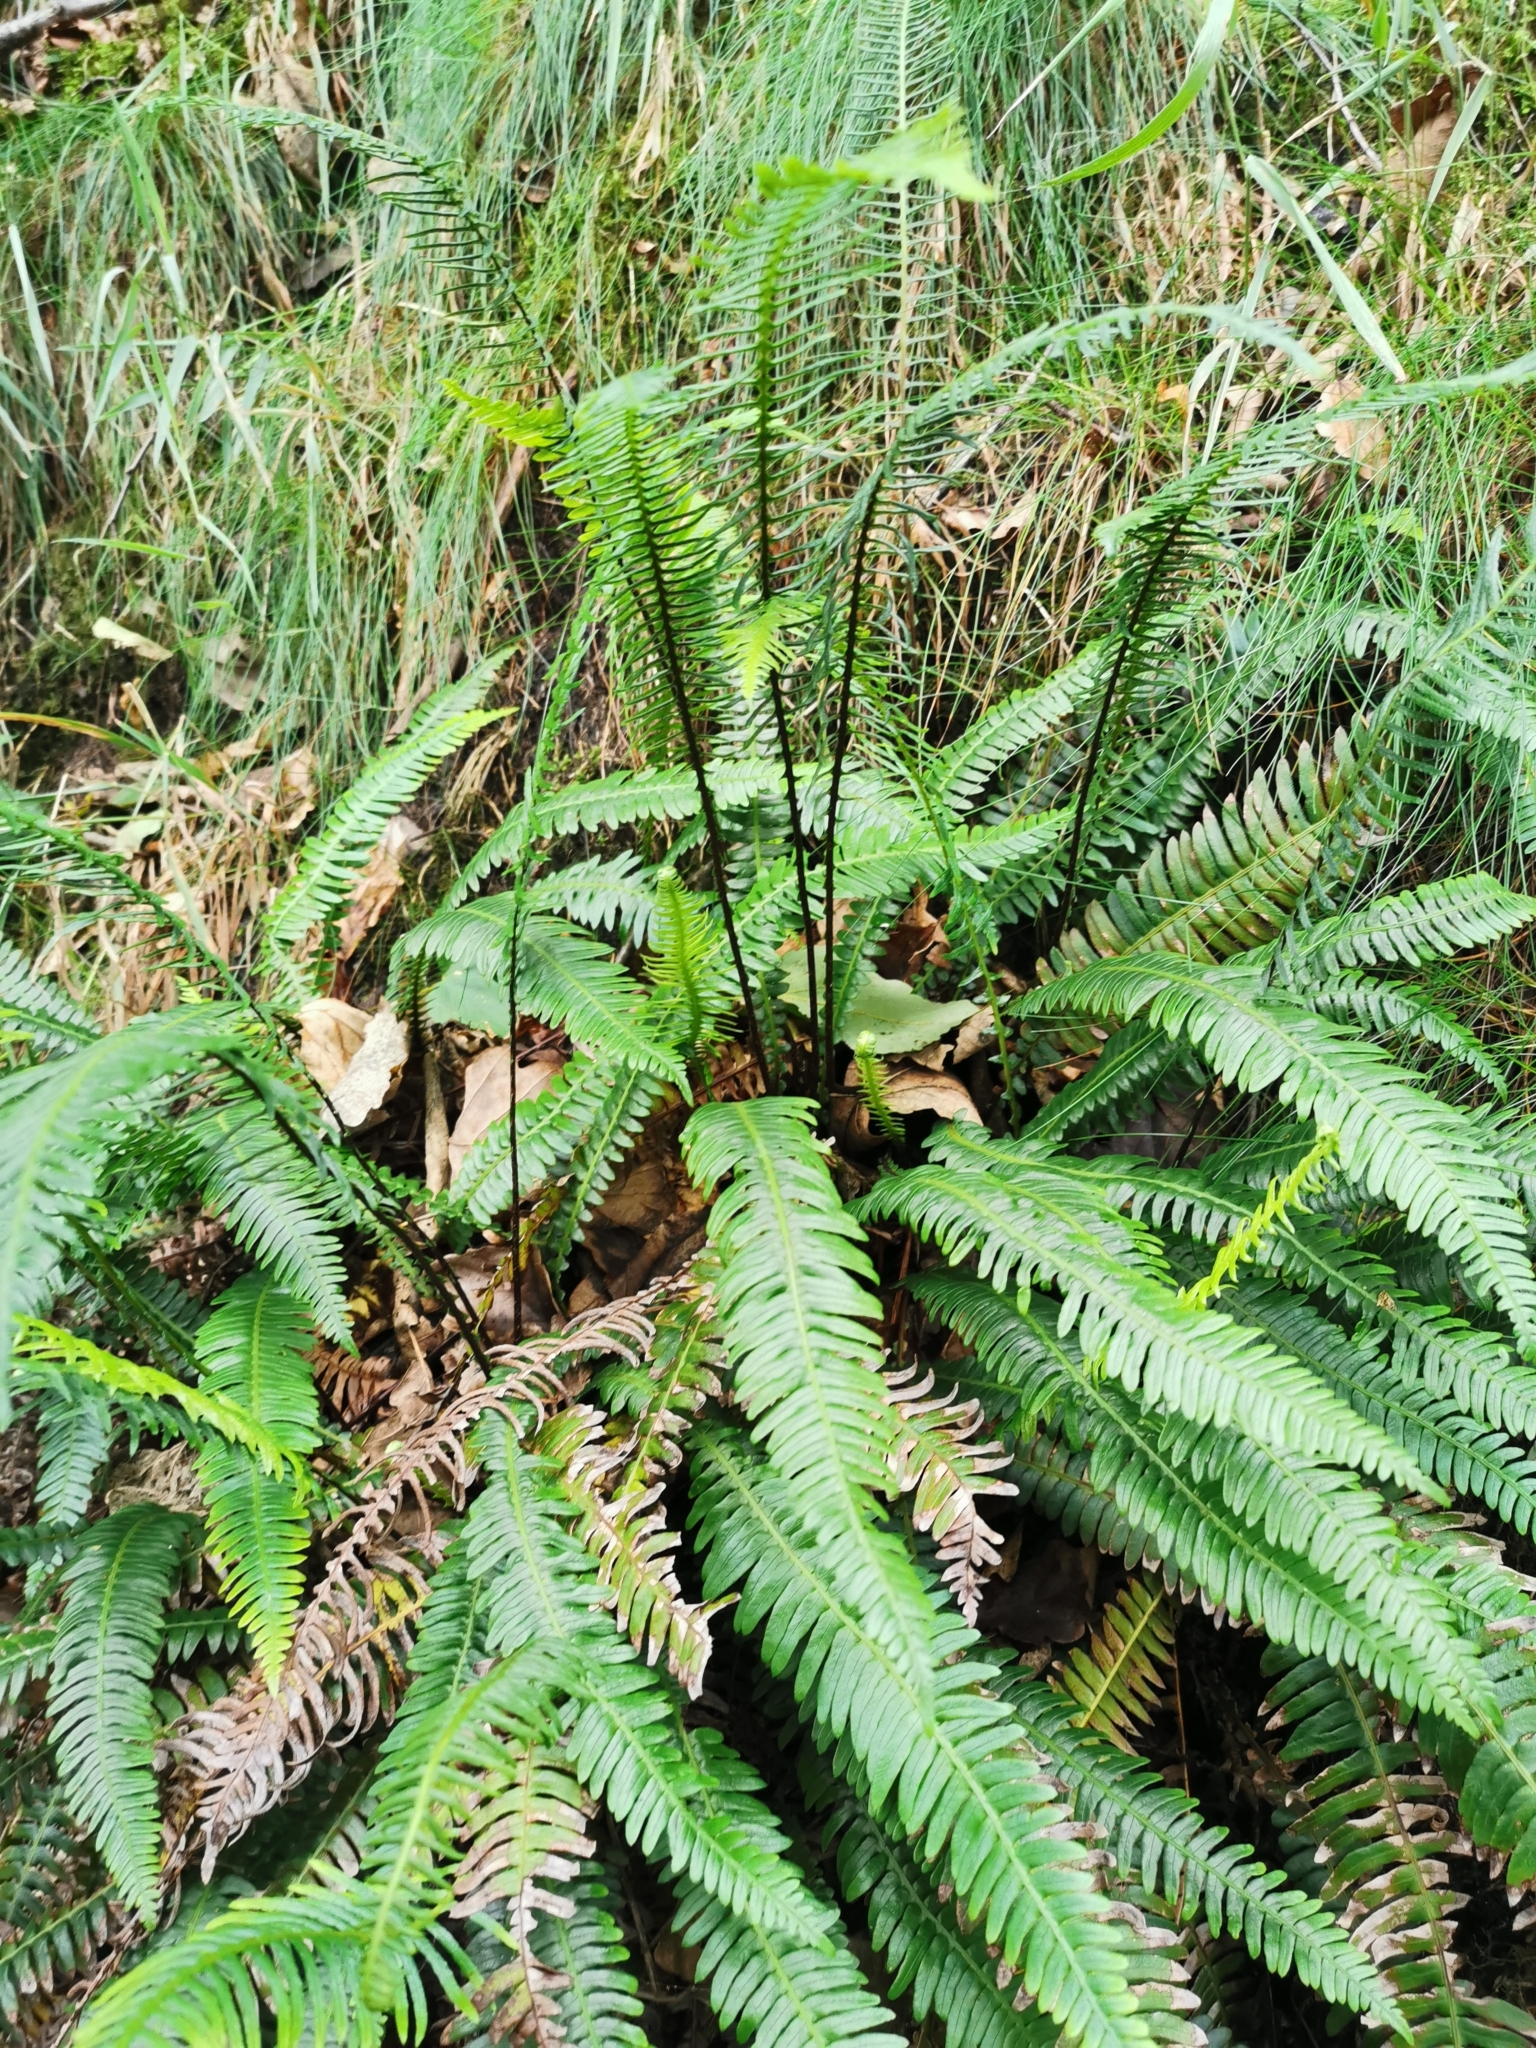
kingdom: Plantae
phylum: Tracheophyta
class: Polypodiopsida
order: Polypodiales
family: Blechnaceae
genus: Struthiopteris
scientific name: Struthiopteris spicant
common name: Deer fern
